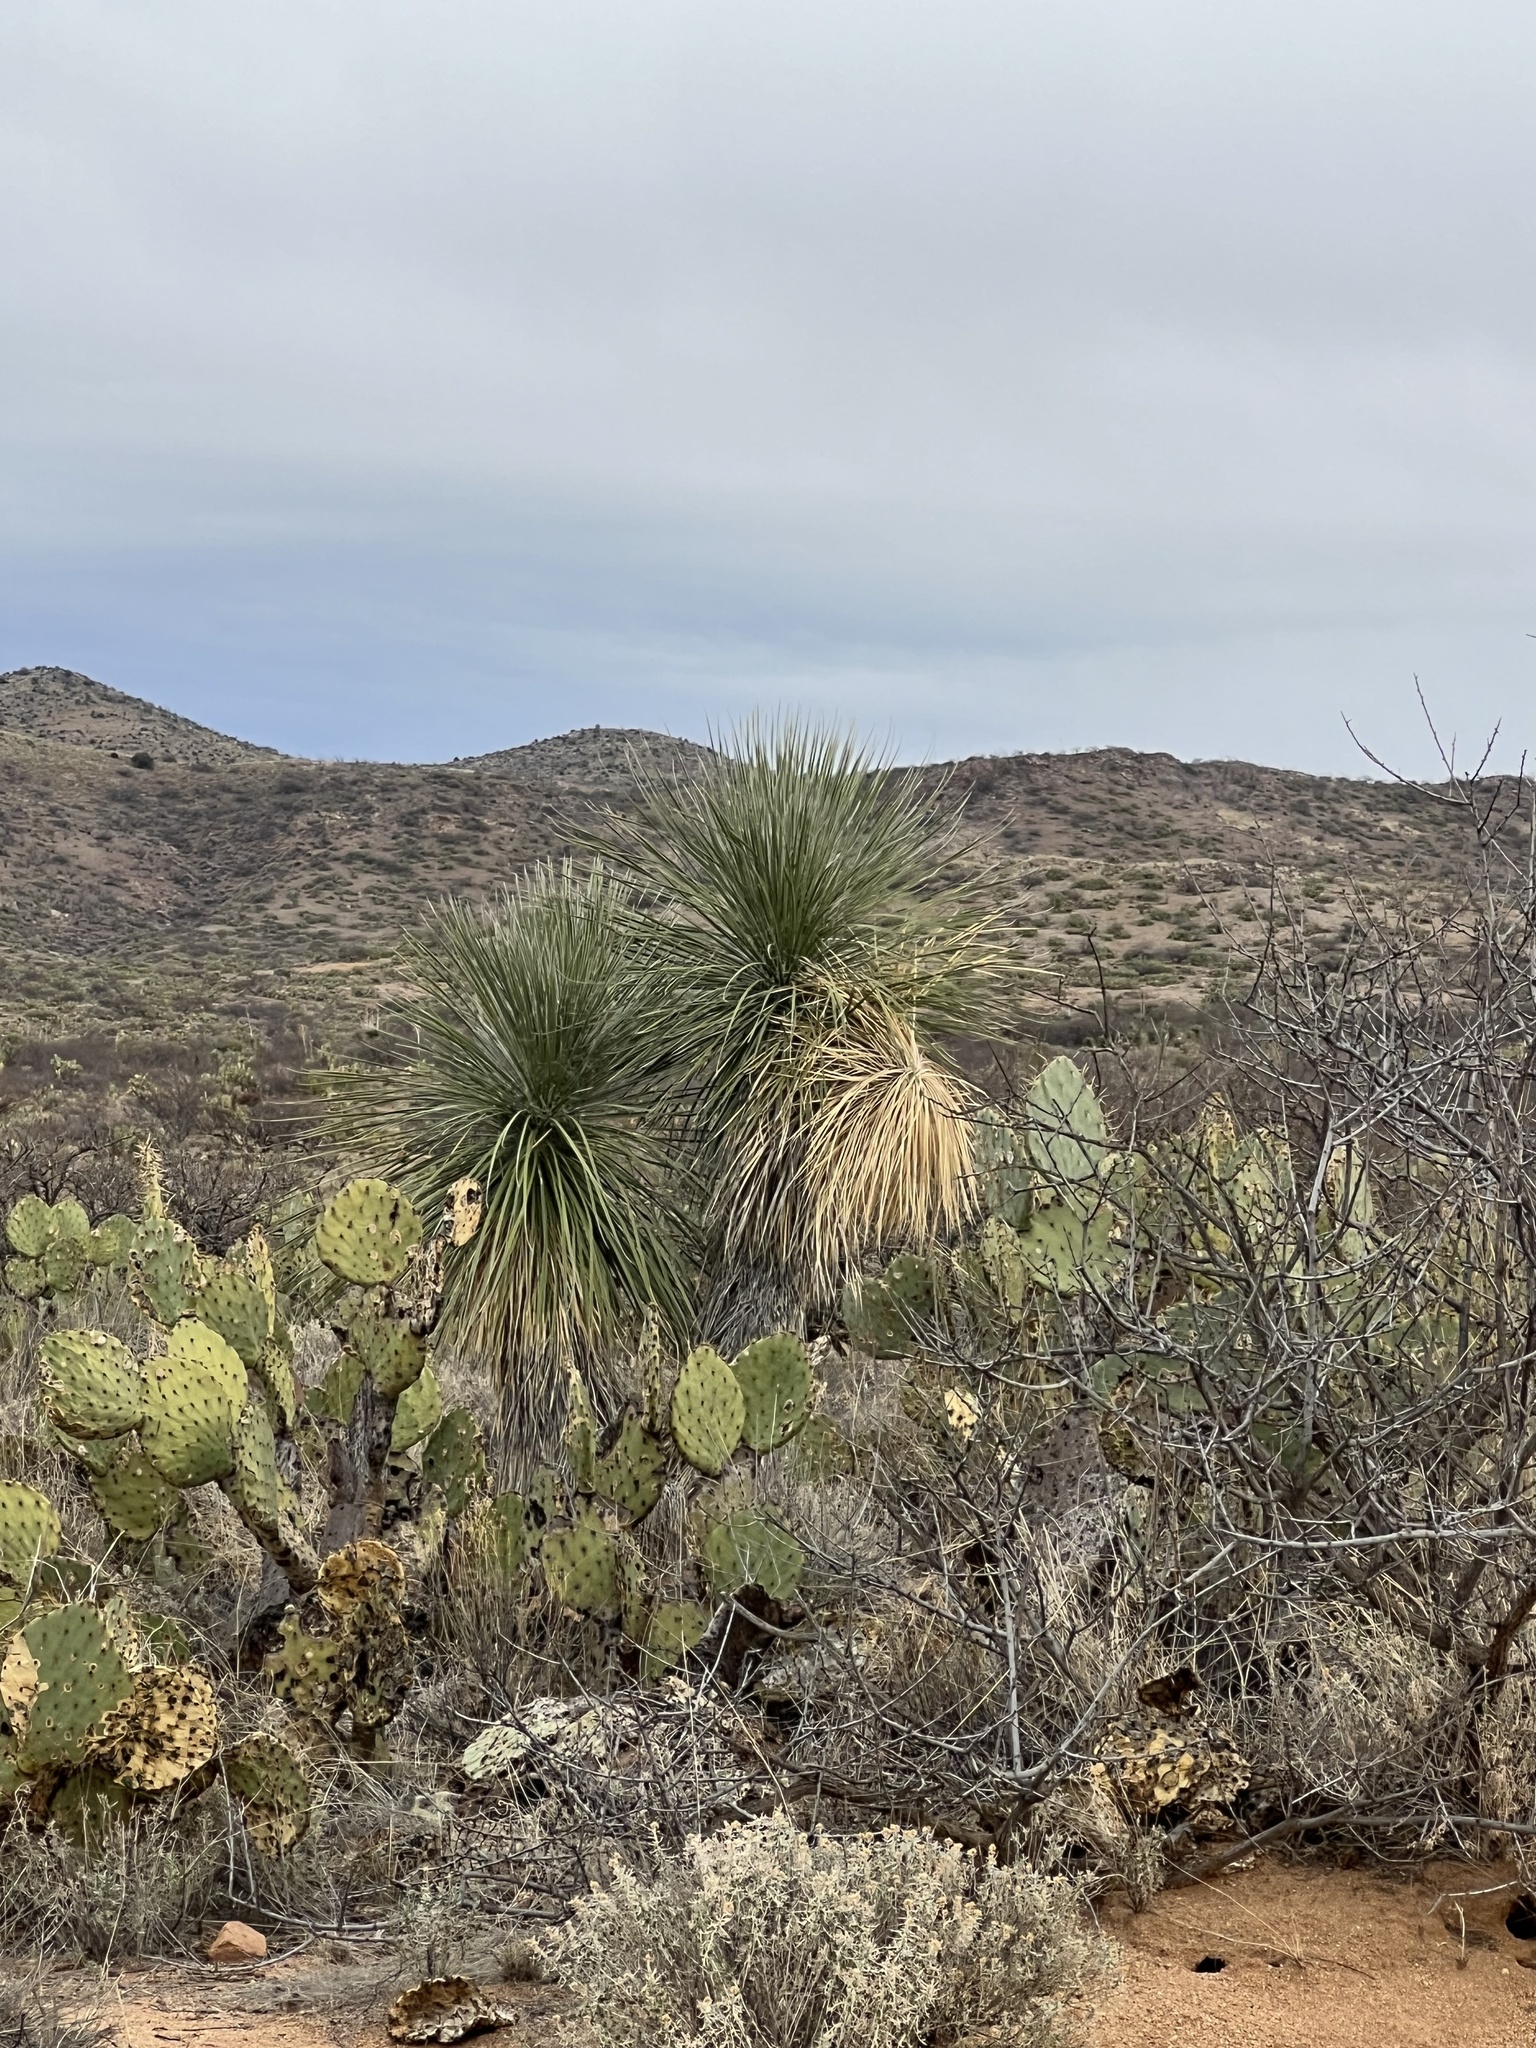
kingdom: Plantae
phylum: Tracheophyta
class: Liliopsida
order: Asparagales
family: Asparagaceae
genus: Yucca
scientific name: Yucca elata
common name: Palmella
